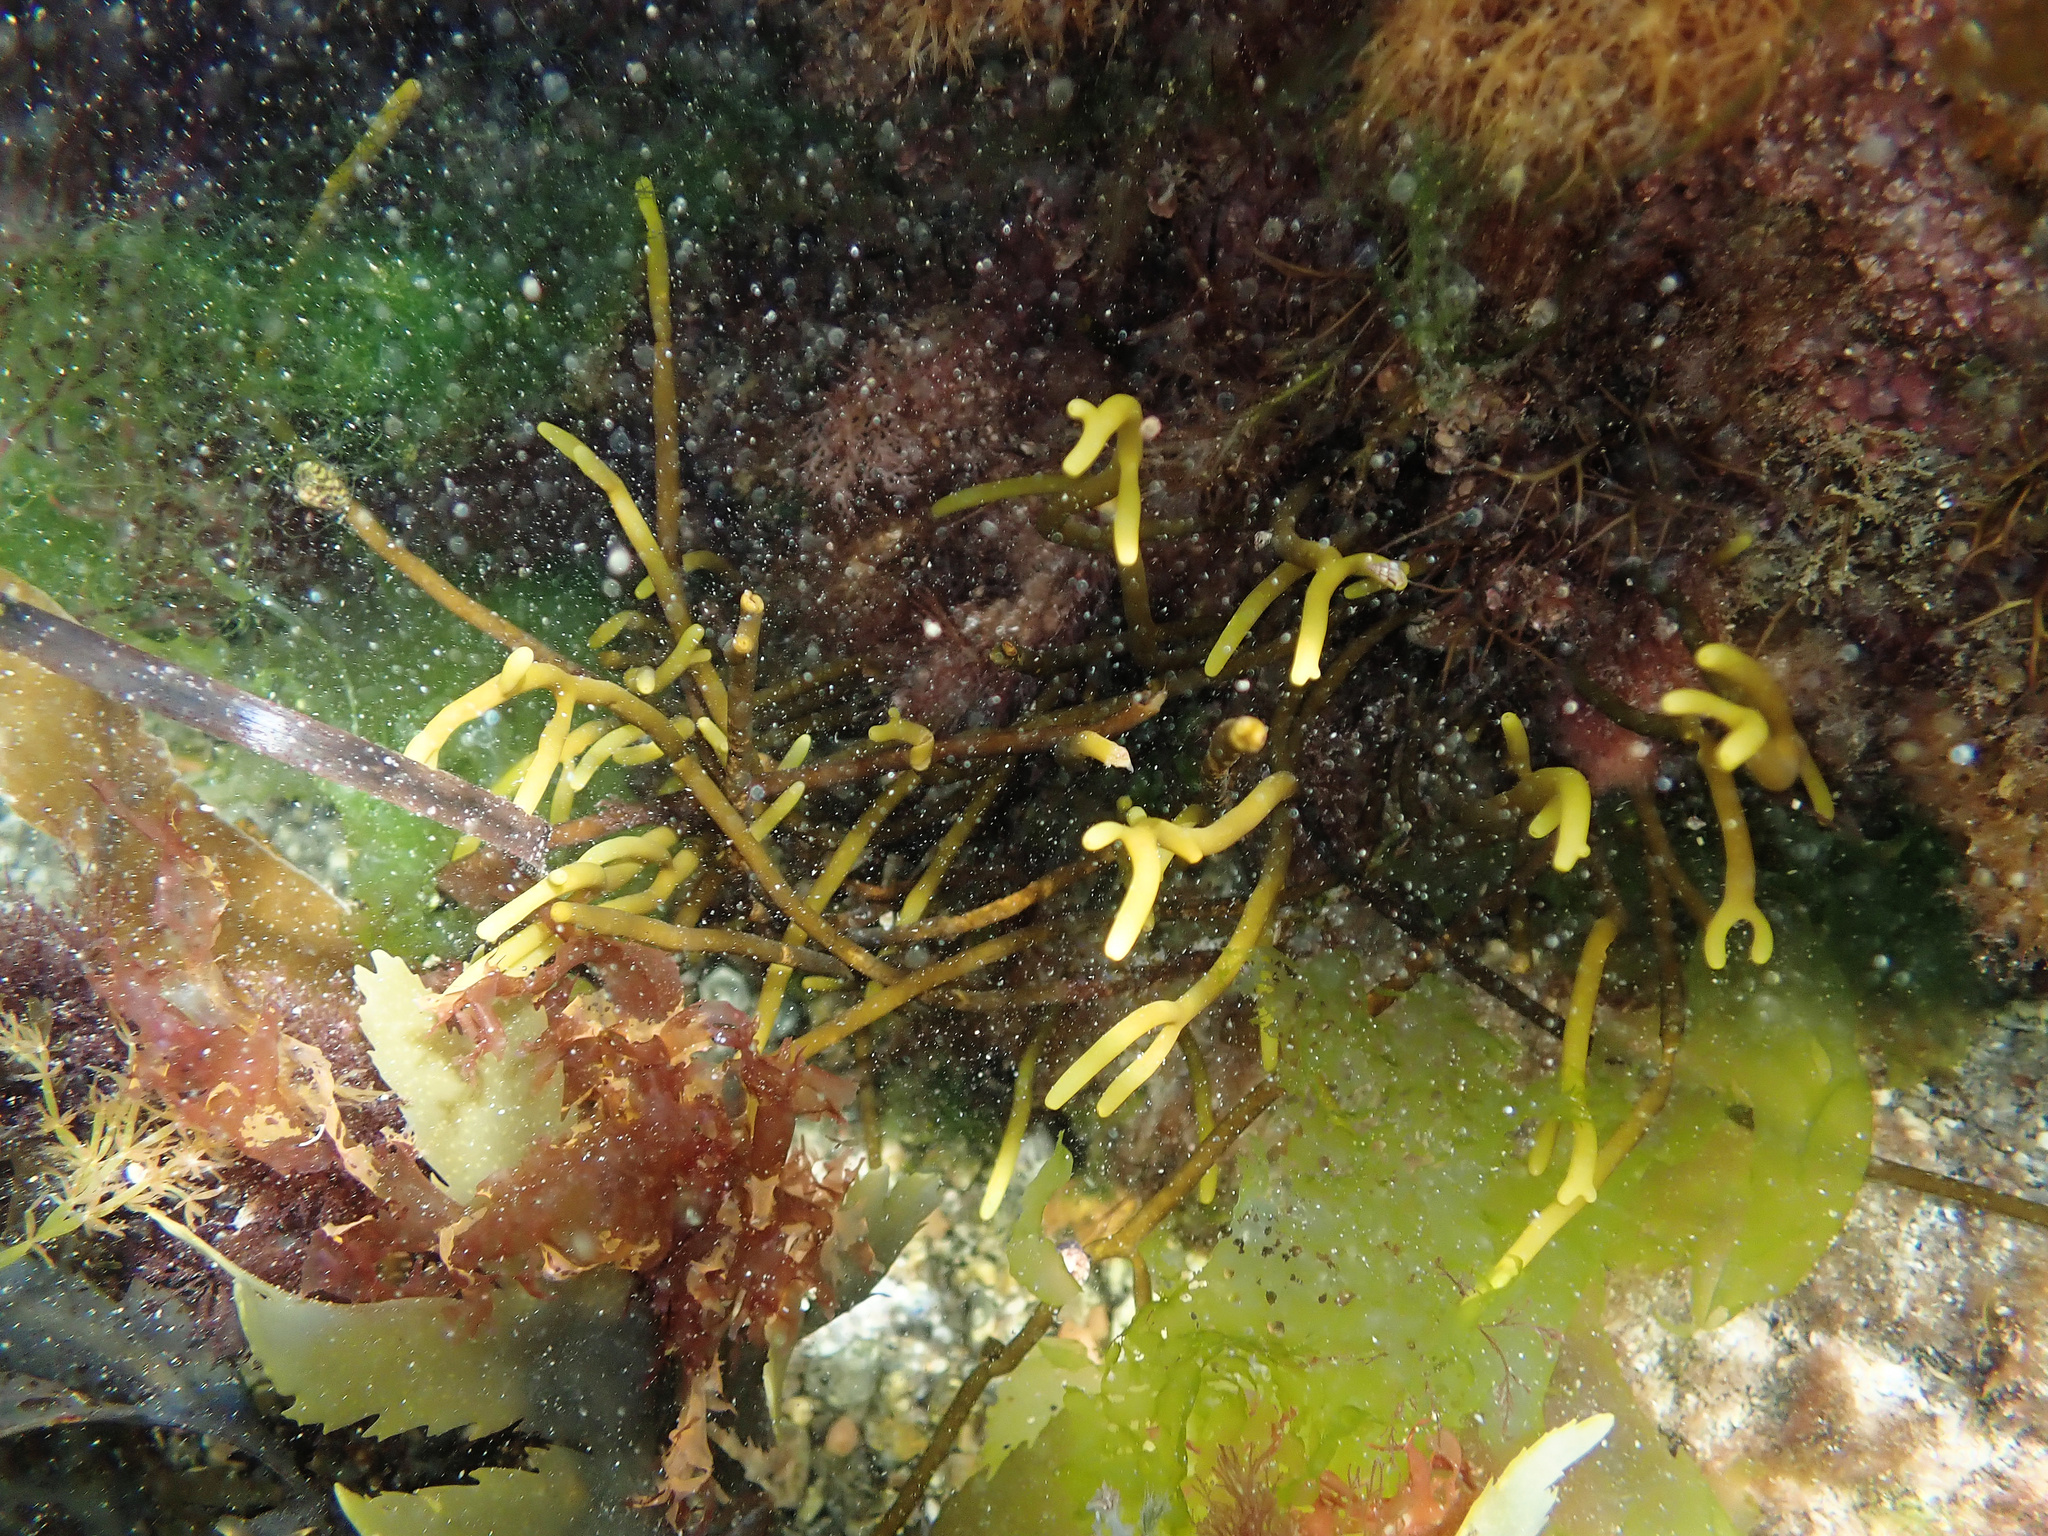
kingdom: Chromista
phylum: Ochrophyta
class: Phaeophyceae
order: Fucales
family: Sargassaceae
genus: Bifurcaria
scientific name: Bifurcaria bifurcata
